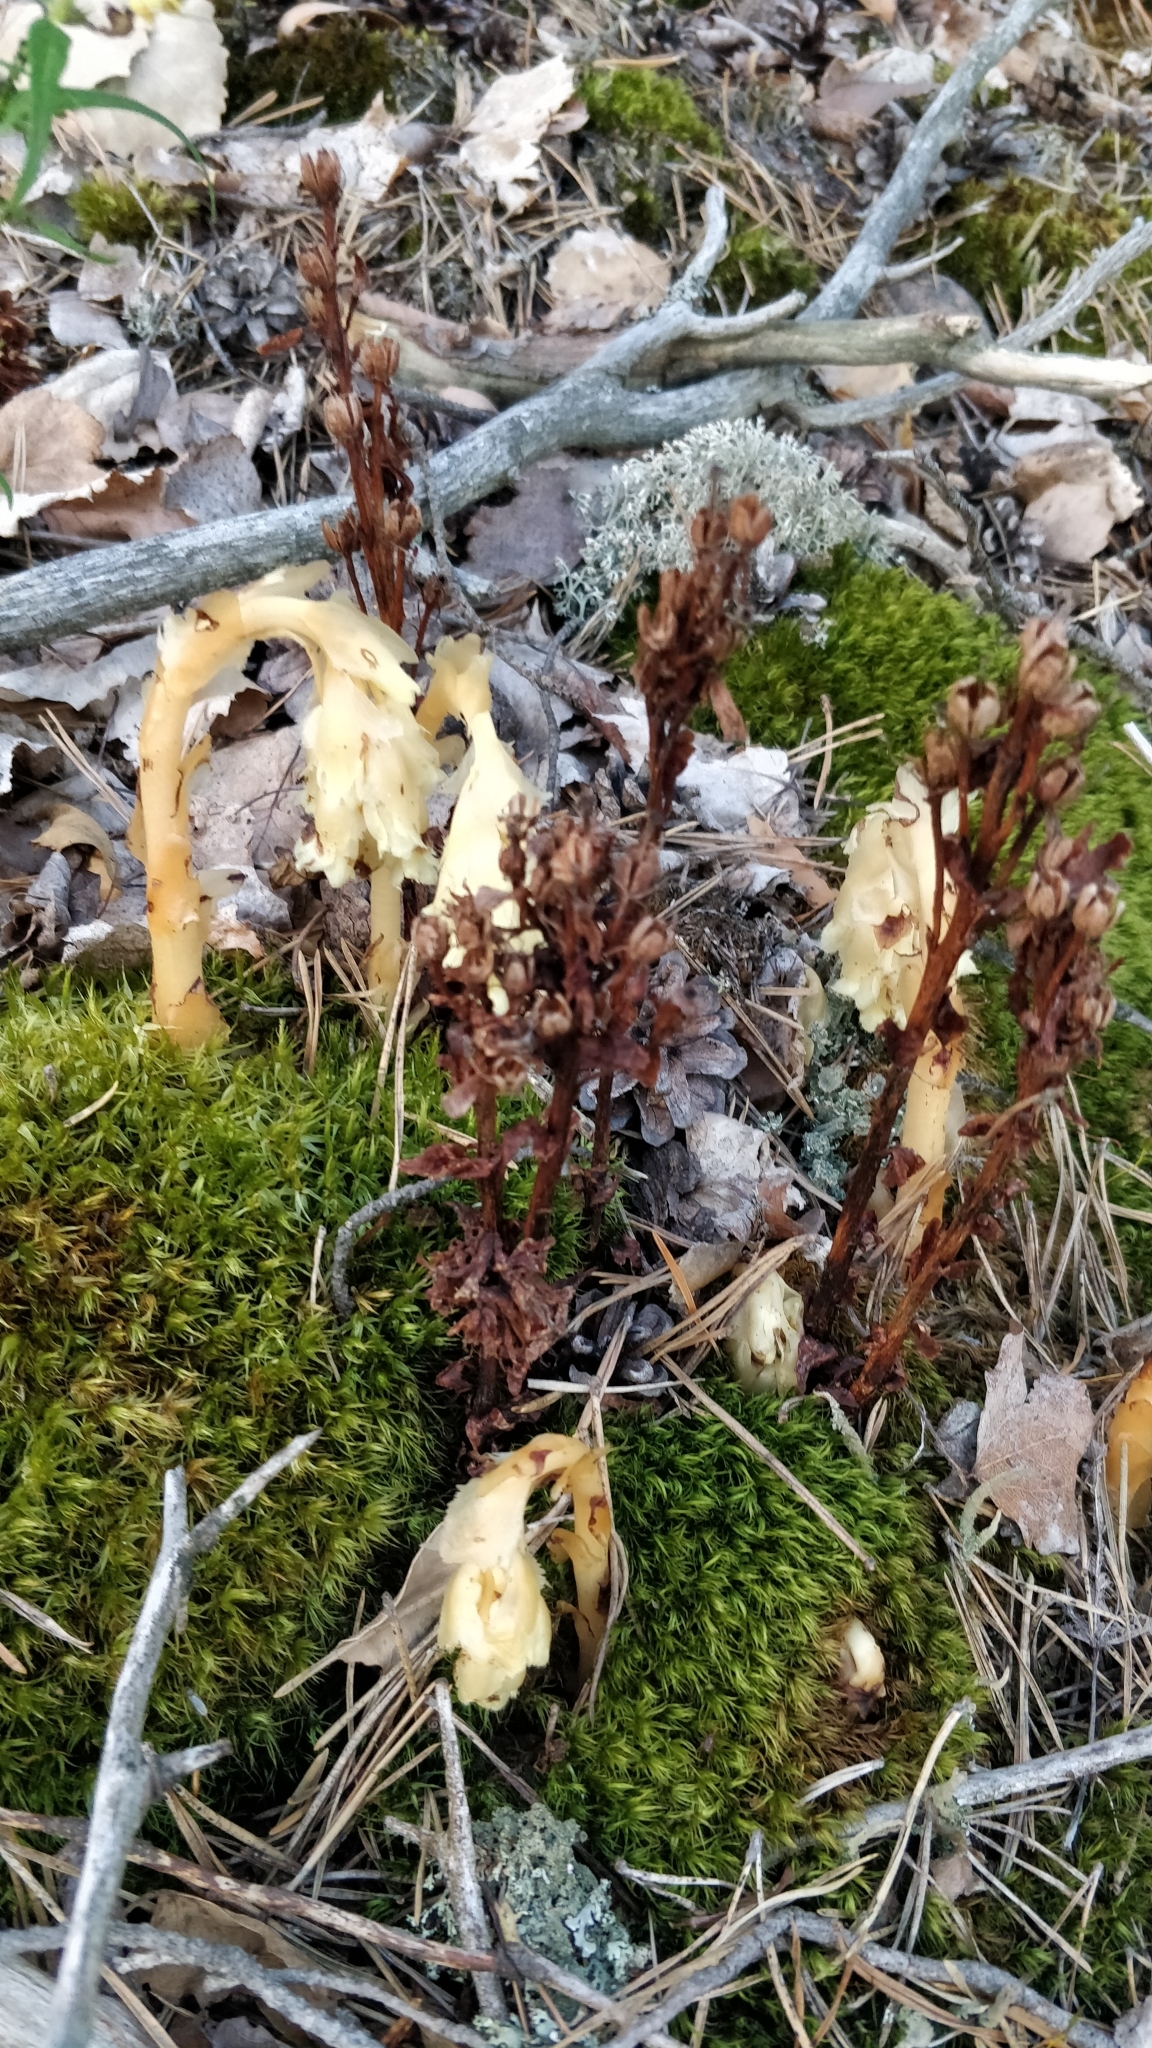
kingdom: Plantae
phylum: Tracheophyta
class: Magnoliopsida
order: Ericales
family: Ericaceae
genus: Hypopitys
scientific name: Hypopitys monotropa
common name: Yellow bird's-nest
